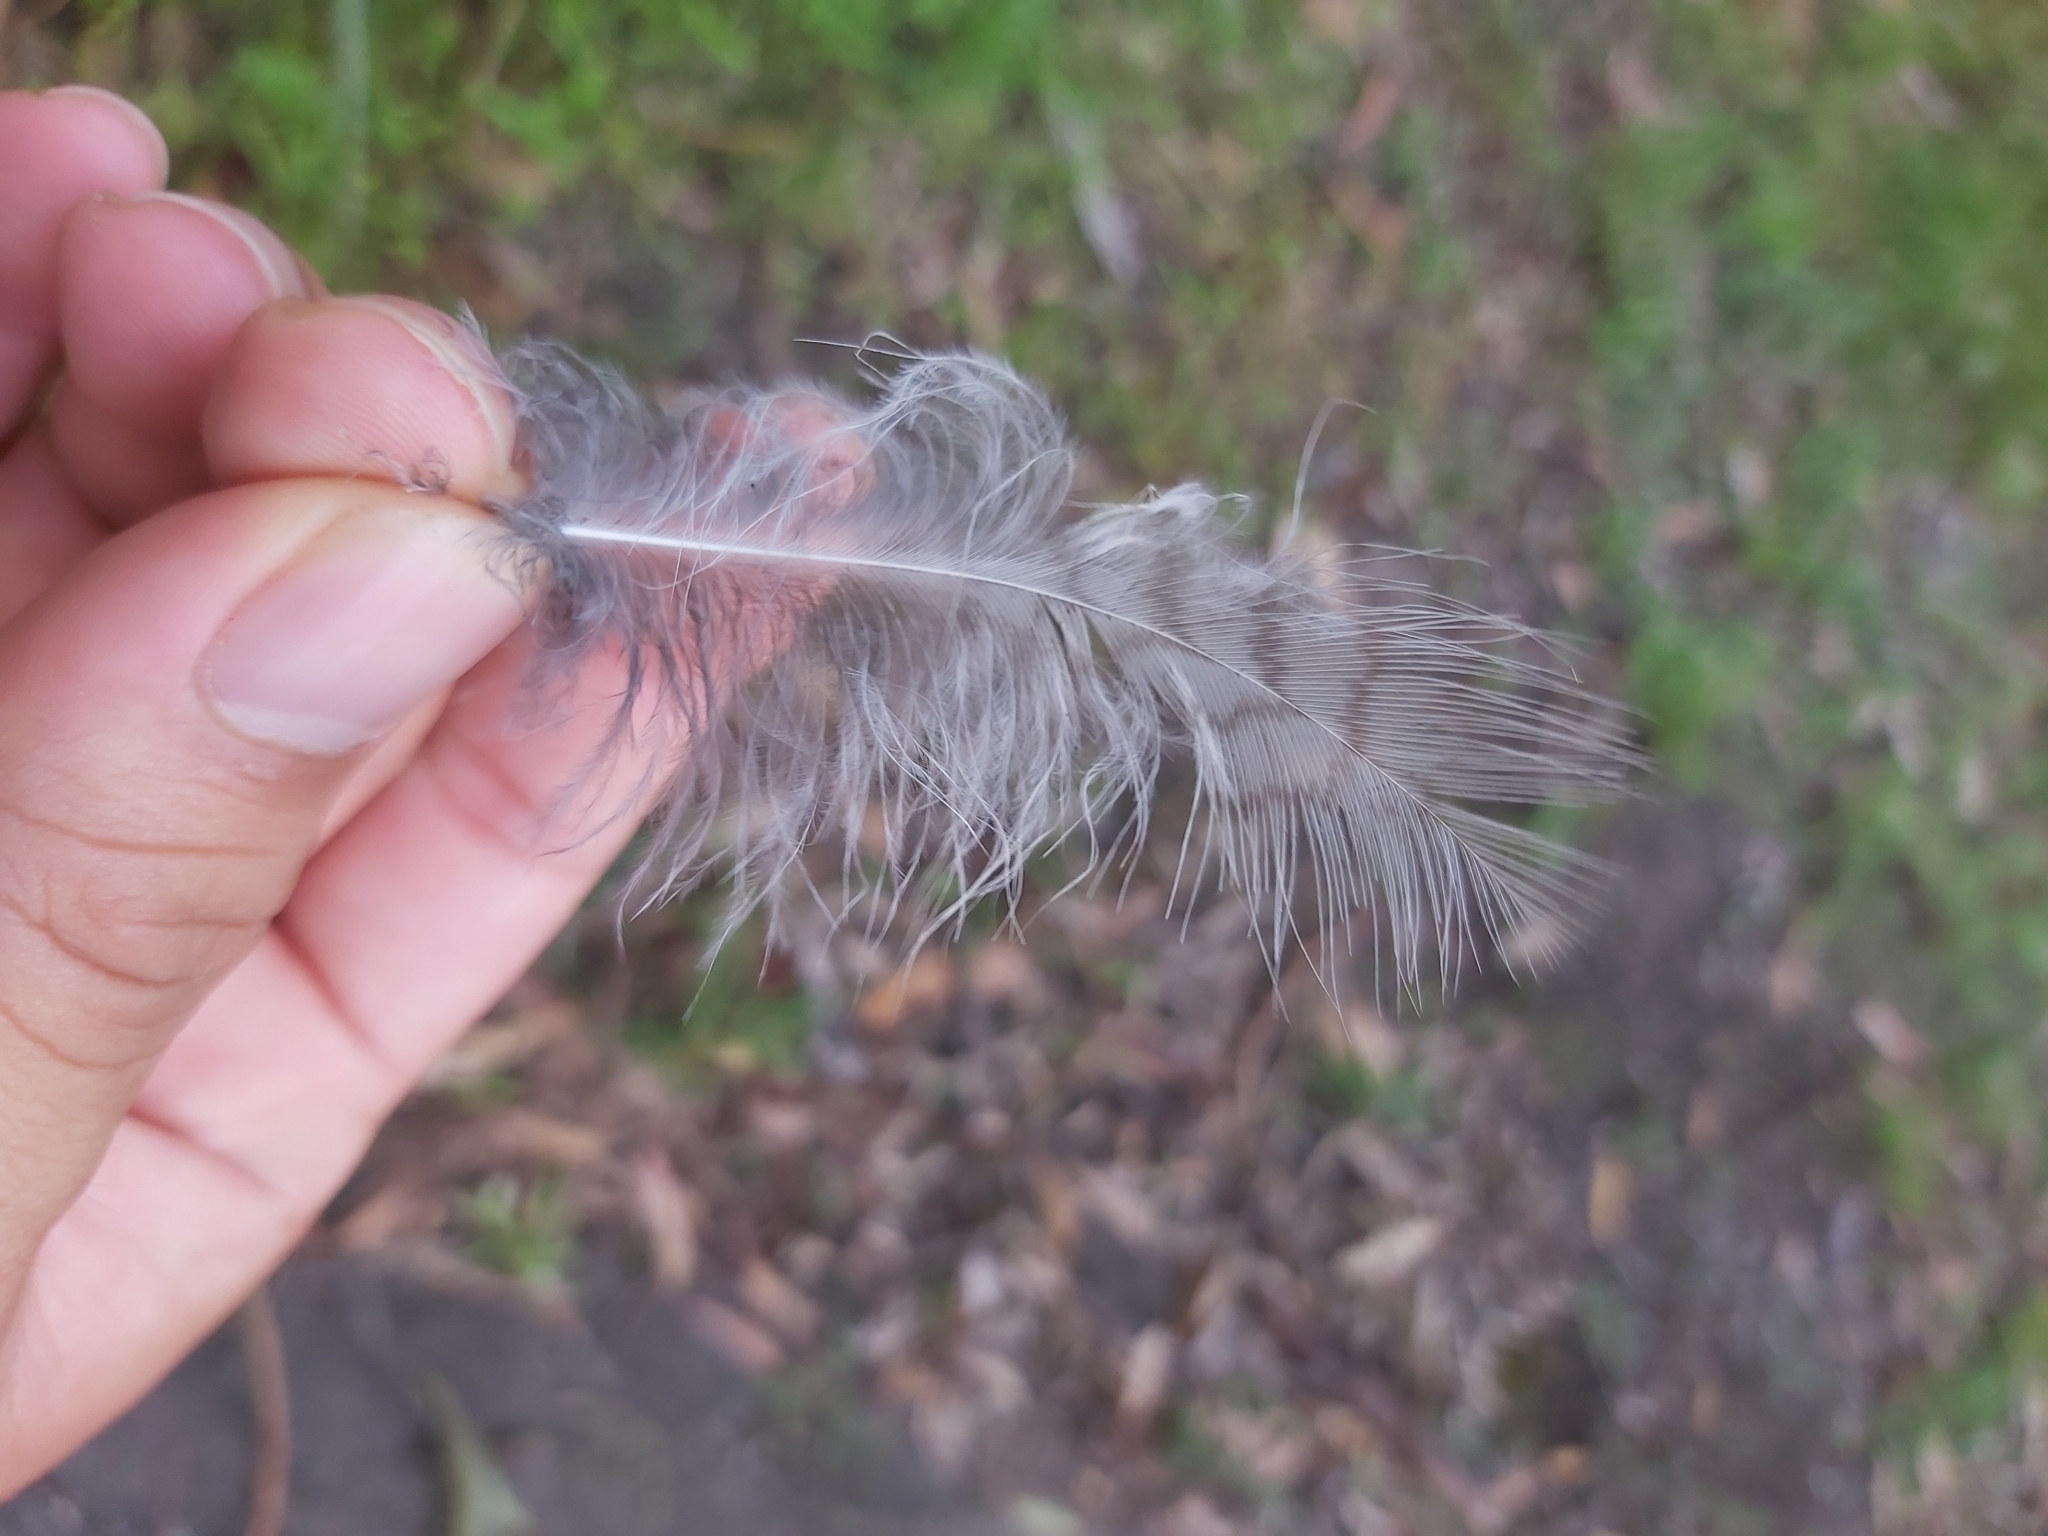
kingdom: Animalia
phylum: Chordata
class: Aves
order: Coraciiformes
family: Alcedinidae
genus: Dacelo
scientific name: Dacelo novaeguineae
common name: Laughing kookaburra
